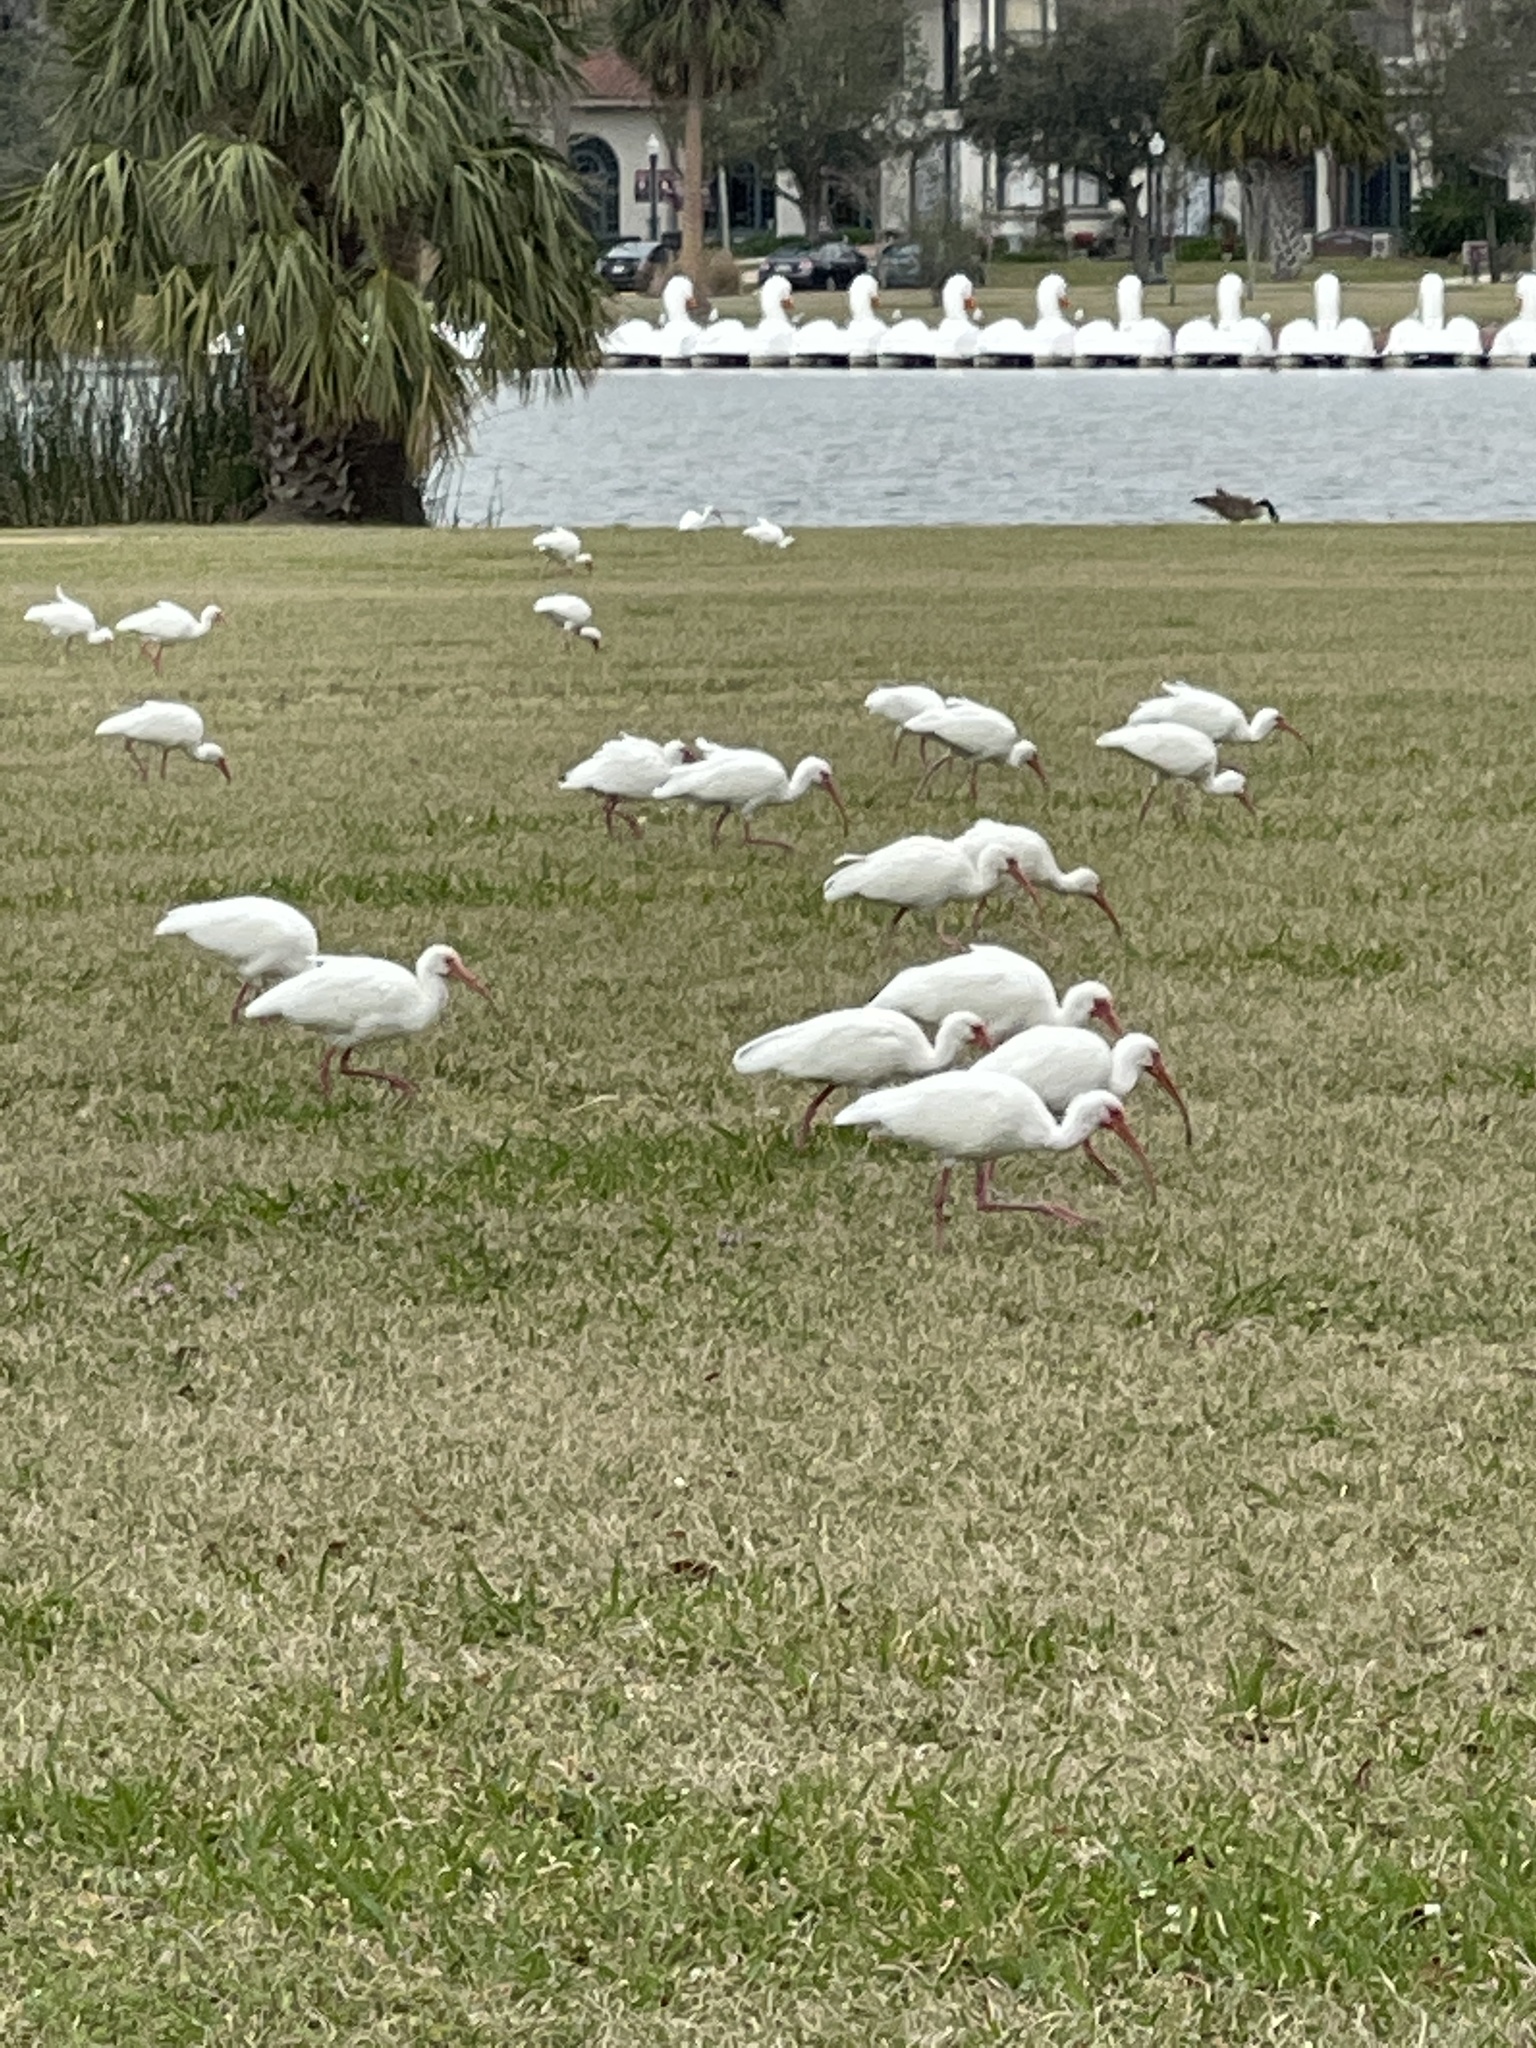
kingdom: Animalia
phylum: Chordata
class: Aves
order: Pelecaniformes
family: Threskiornithidae
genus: Eudocimus
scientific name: Eudocimus albus
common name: White ibis
